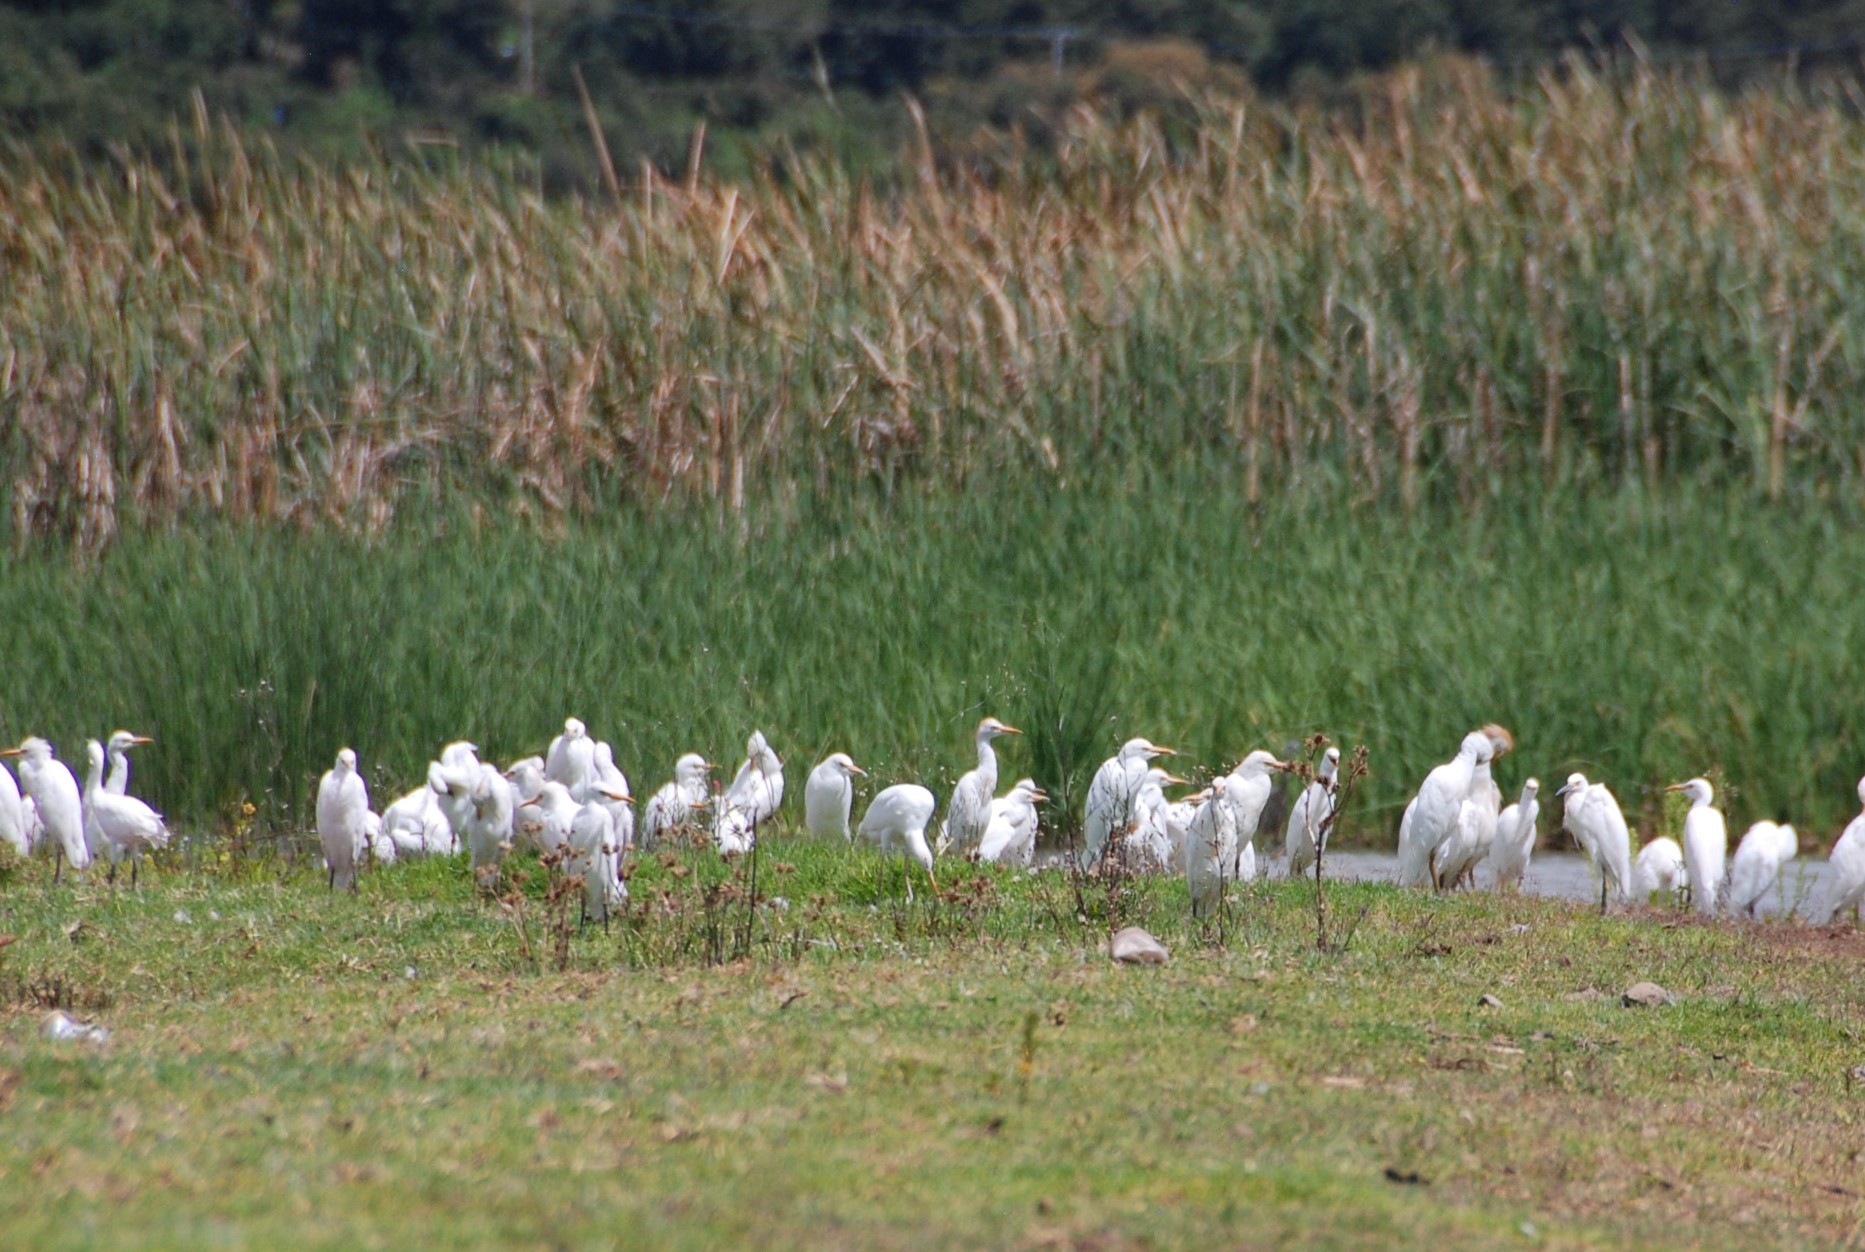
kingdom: Animalia
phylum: Chordata
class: Aves
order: Pelecaniformes
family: Ardeidae
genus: Bubulcus
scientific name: Bubulcus ibis
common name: Cattle egret
